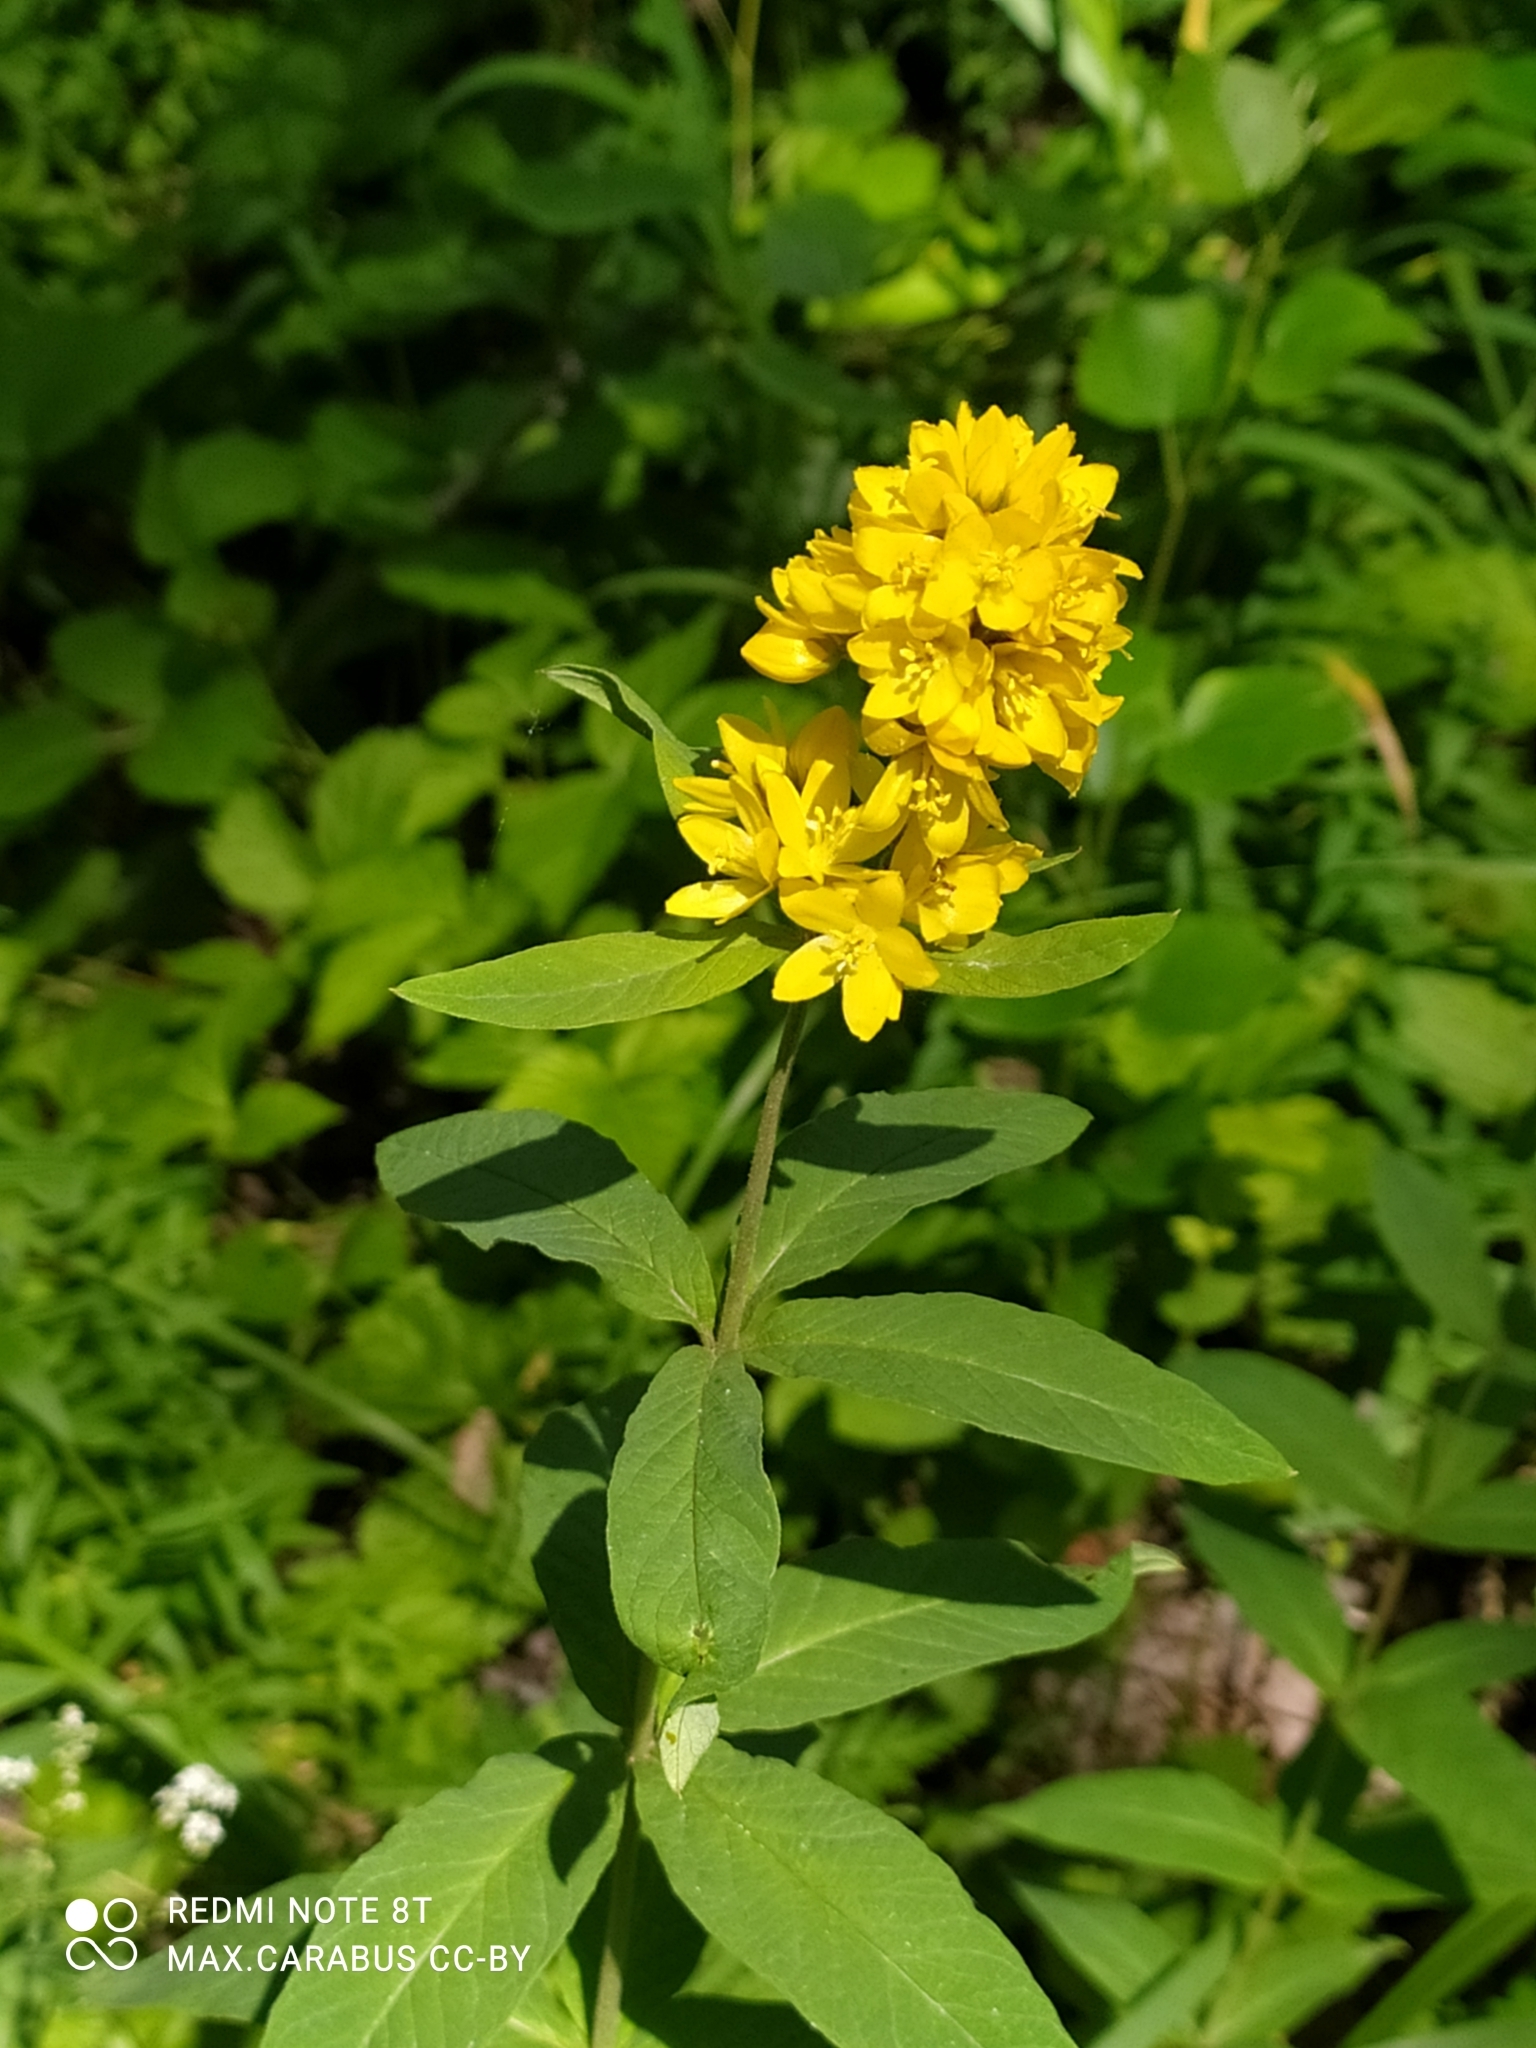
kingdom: Plantae
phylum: Tracheophyta
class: Magnoliopsida
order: Ericales
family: Primulaceae
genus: Lysimachia
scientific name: Lysimachia vulgaris
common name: Yellow loosestrife
